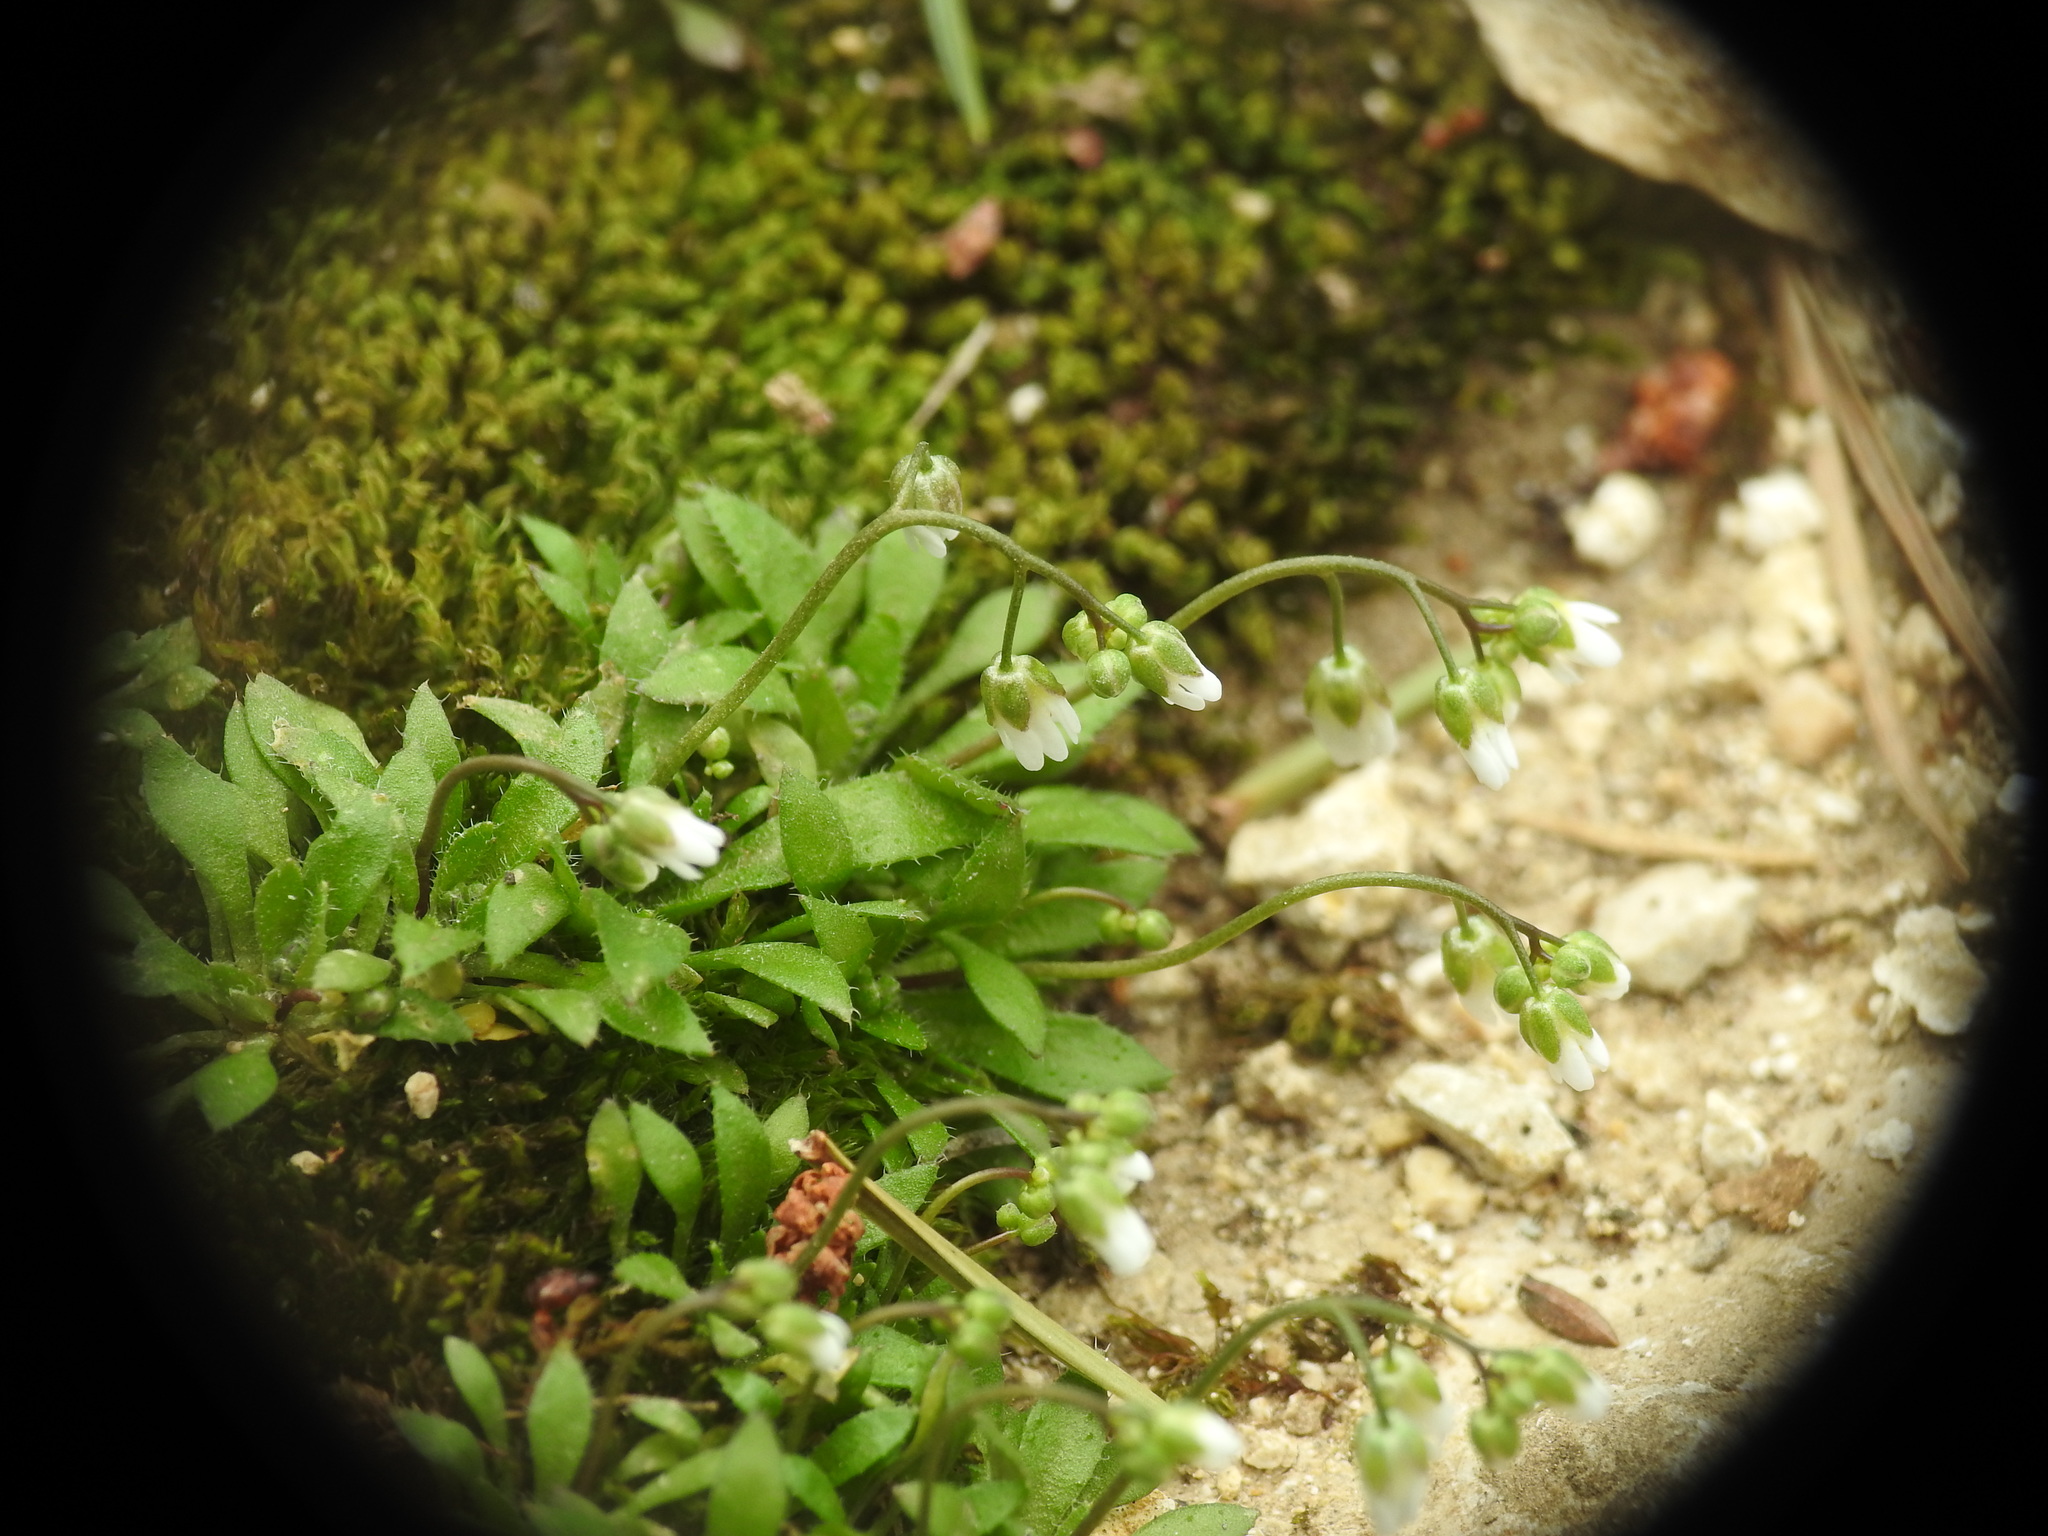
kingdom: Plantae
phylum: Tracheophyta
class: Magnoliopsida
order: Brassicales
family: Brassicaceae
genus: Draba
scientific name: Draba verna
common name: Spring draba
